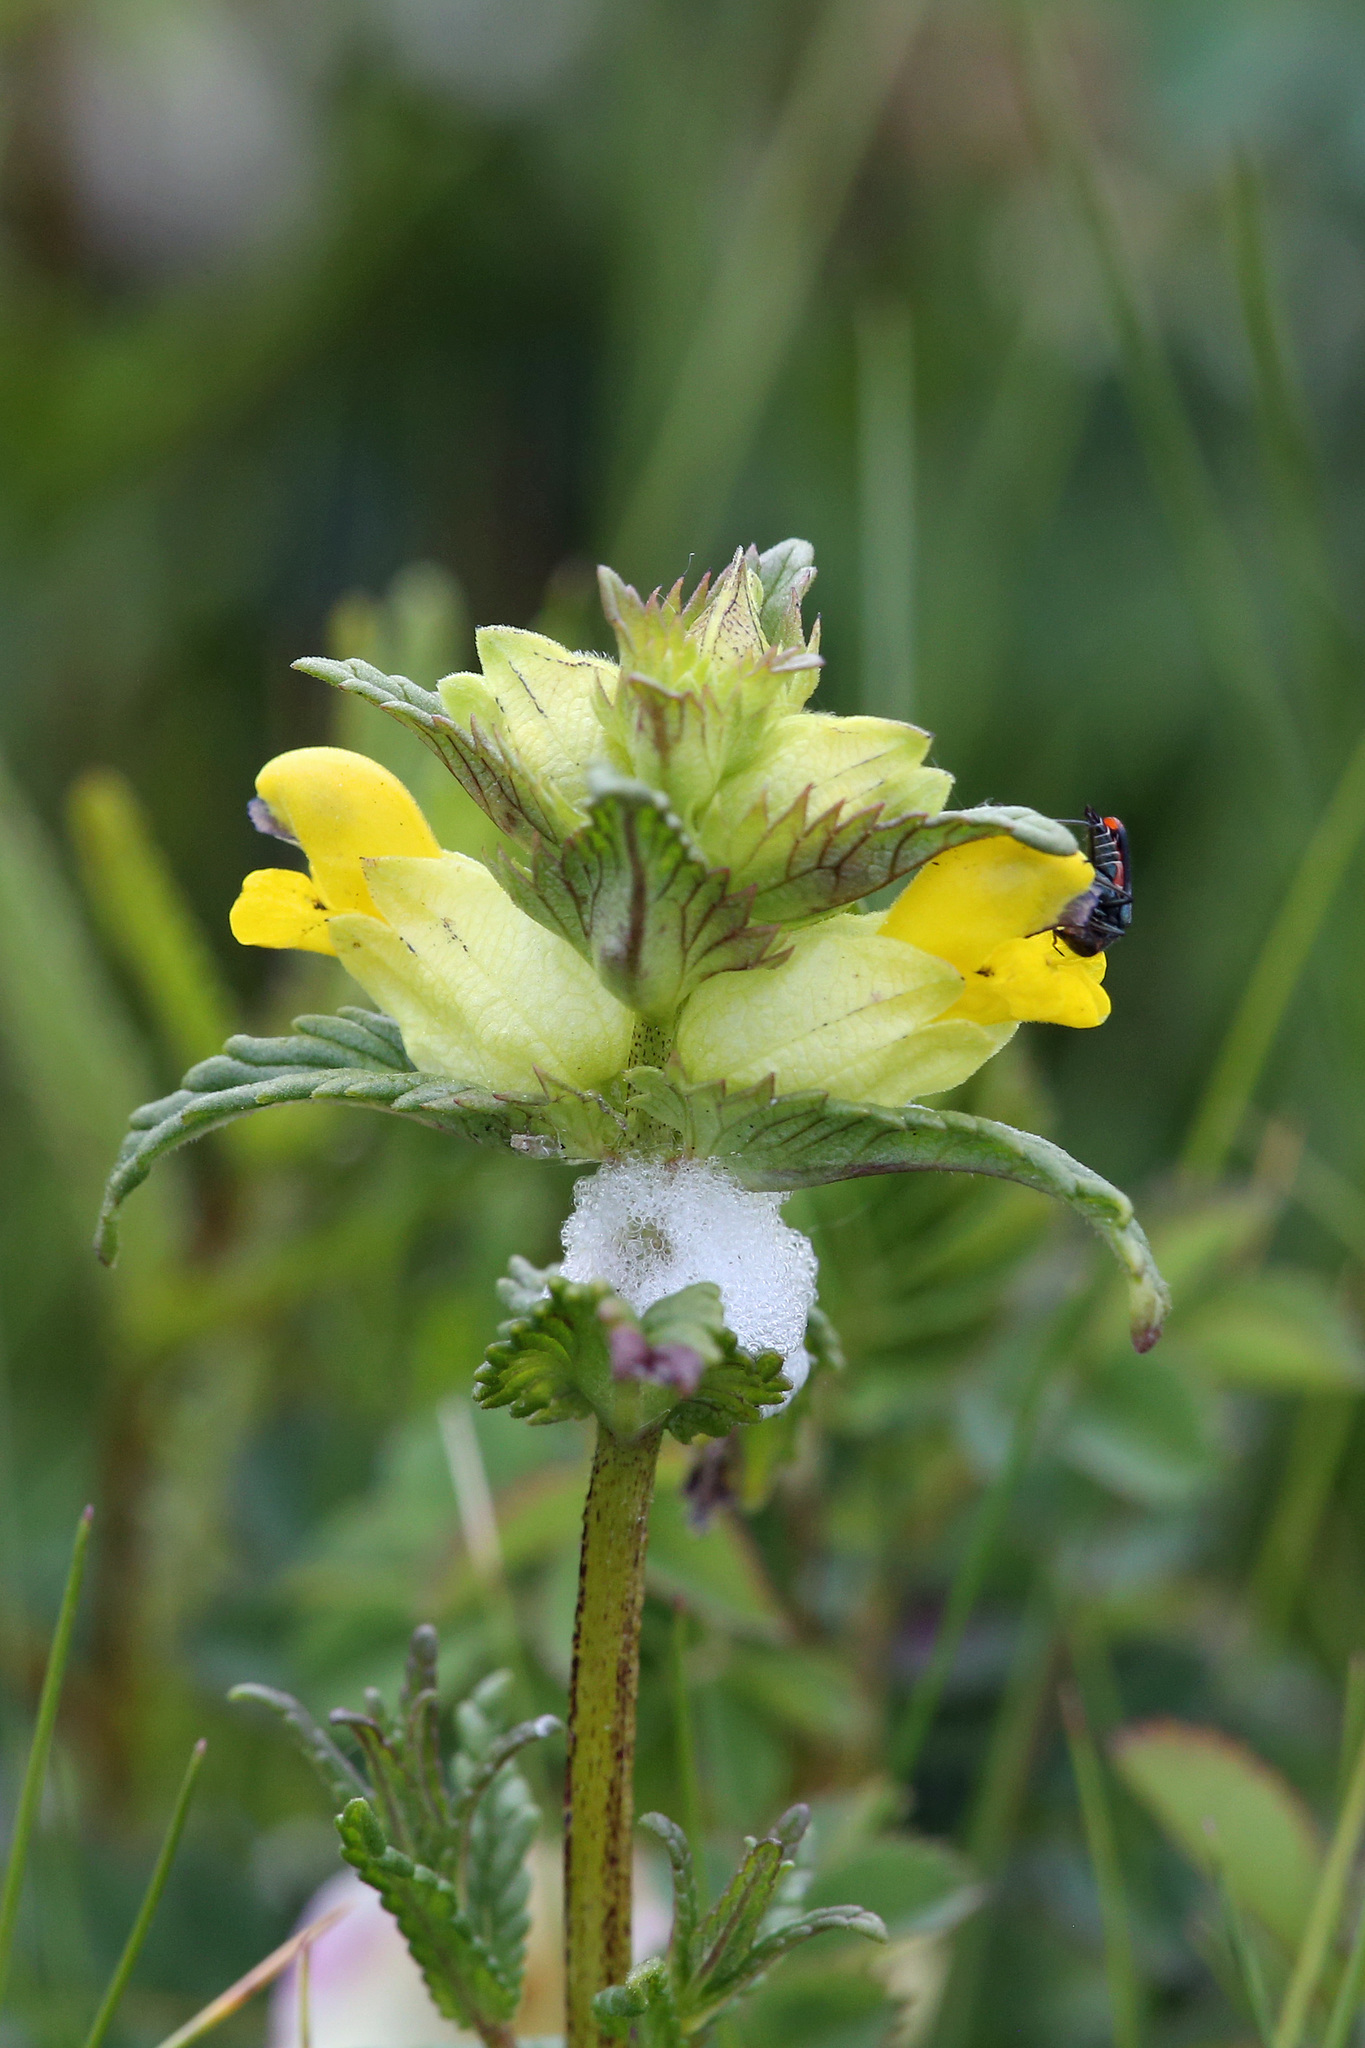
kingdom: Plantae
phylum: Tracheophyta
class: Magnoliopsida
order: Lamiales
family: Orobanchaceae
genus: Rhinanthus
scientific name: Rhinanthus minor
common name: Yellow-rattle
